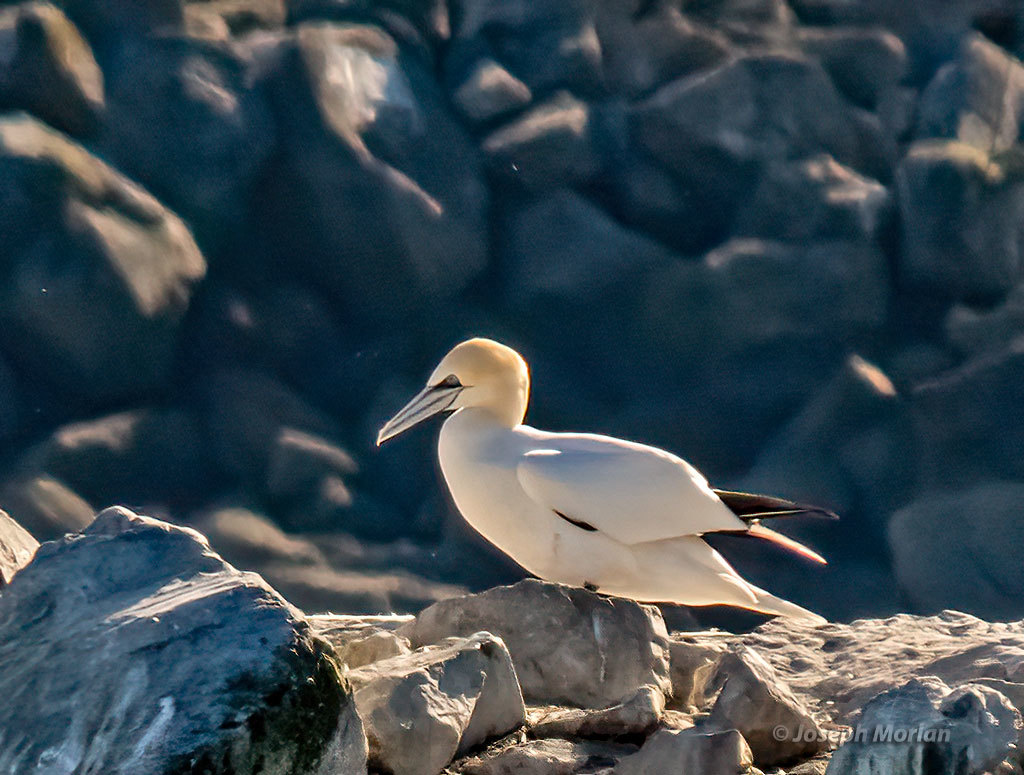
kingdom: Animalia
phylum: Chordata
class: Aves
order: Suliformes
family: Sulidae
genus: Morus
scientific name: Morus bassanus
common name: Northern gannet
